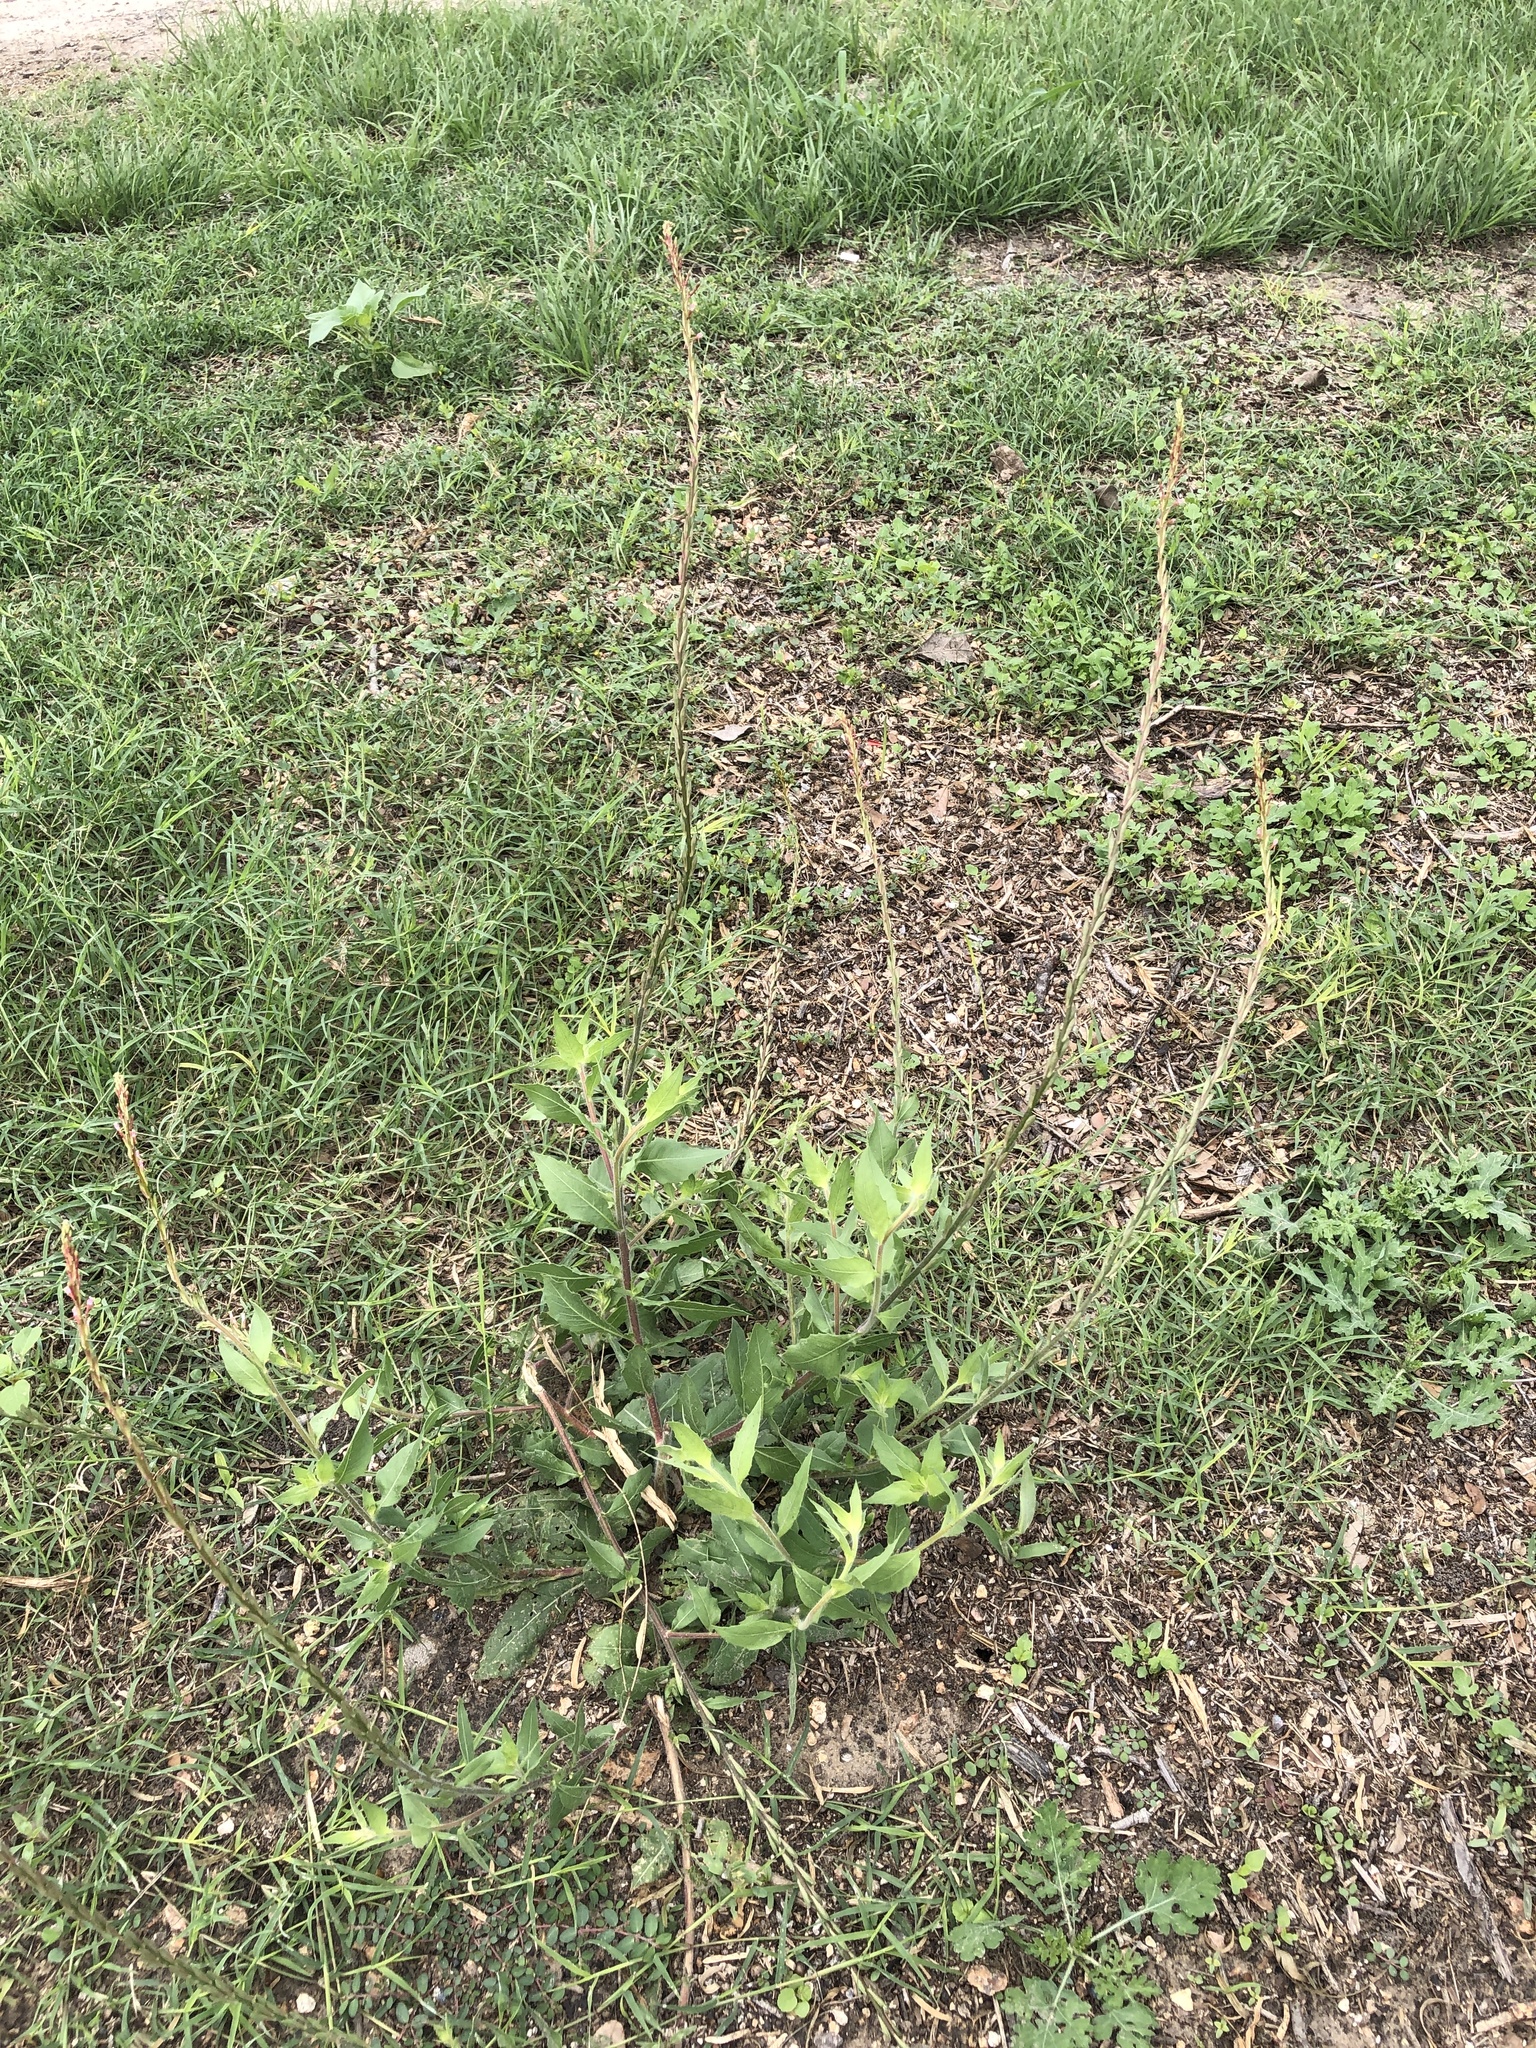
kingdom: Plantae
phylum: Tracheophyta
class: Magnoliopsida
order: Myrtales
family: Onagraceae
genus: Oenothera
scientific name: Oenothera curtiflora
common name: Velvetweed
